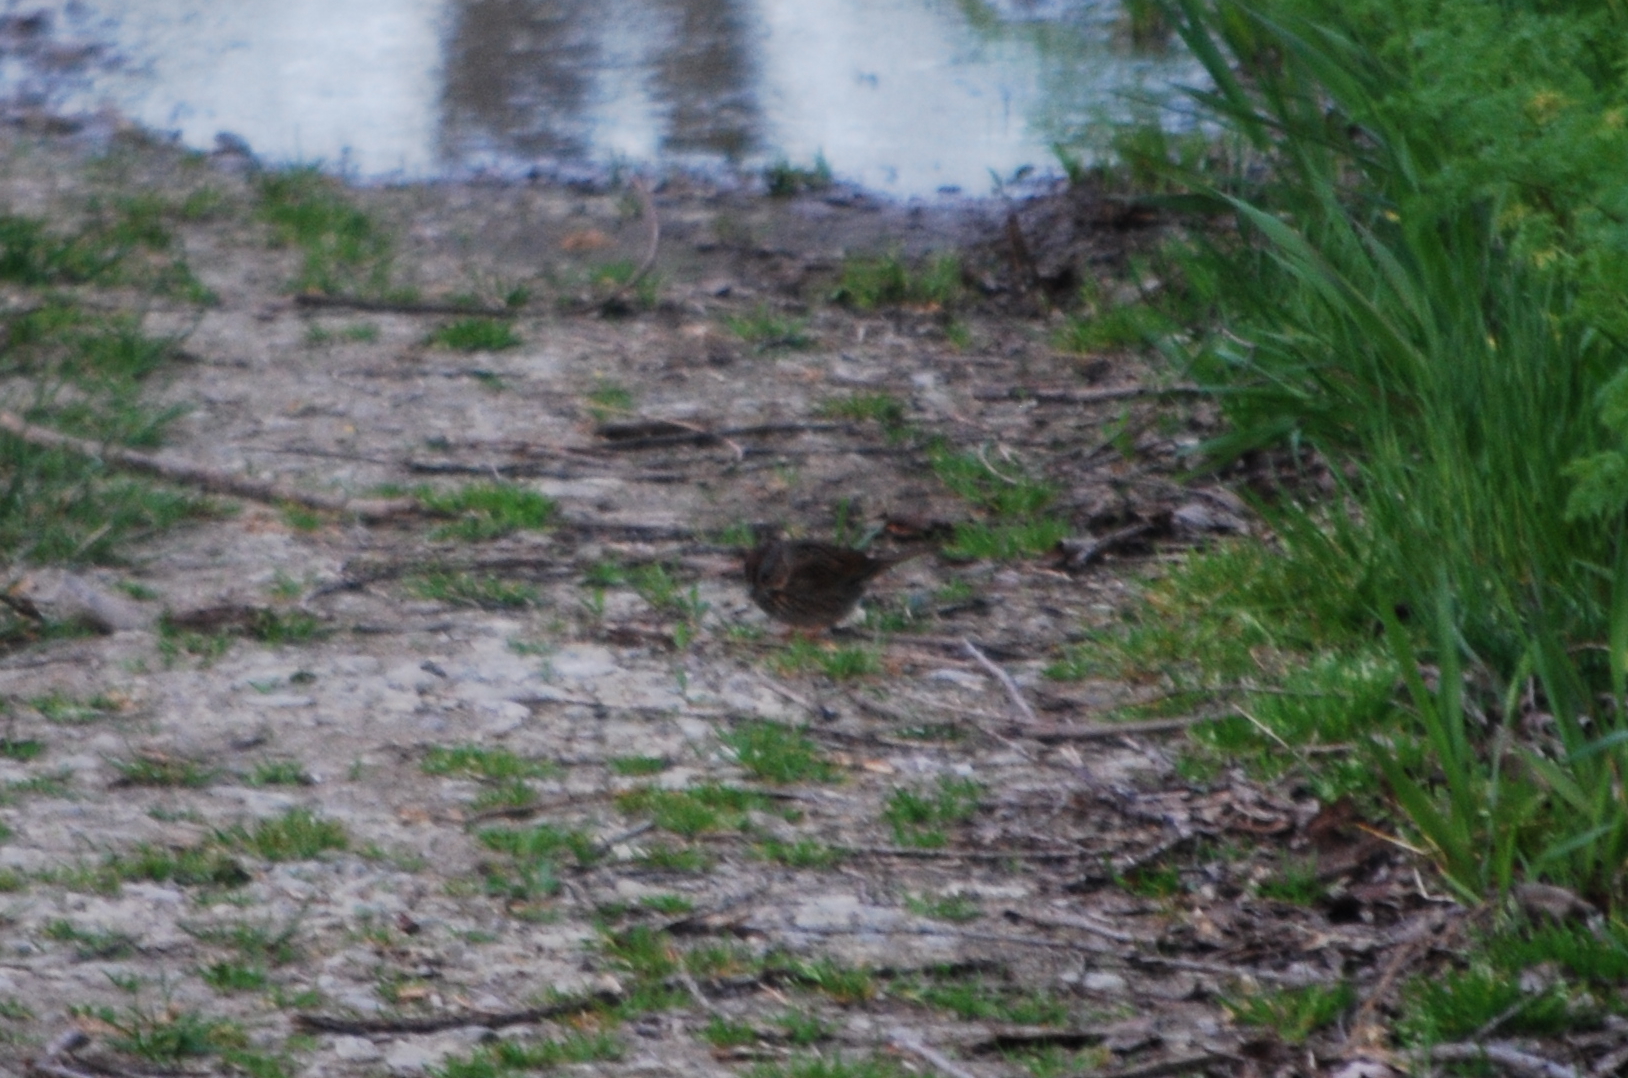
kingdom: Animalia
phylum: Chordata
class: Aves
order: Passeriformes
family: Passerellidae
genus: Melospiza
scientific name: Melospiza lincolnii
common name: Lincoln's sparrow
